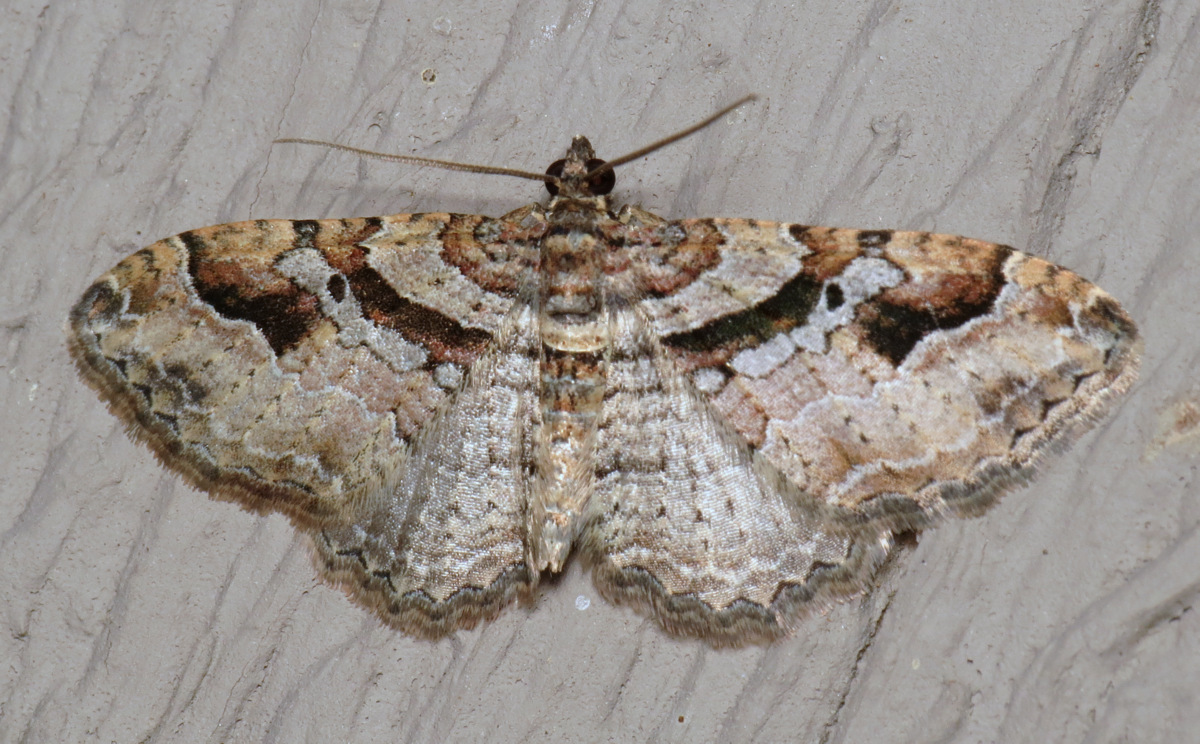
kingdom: Animalia
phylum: Arthropoda
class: Insecta
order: Lepidoptera
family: Geometridae
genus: Costaconvexa
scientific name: Costaconvexa centrostrigaria
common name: Bent-line carpet
